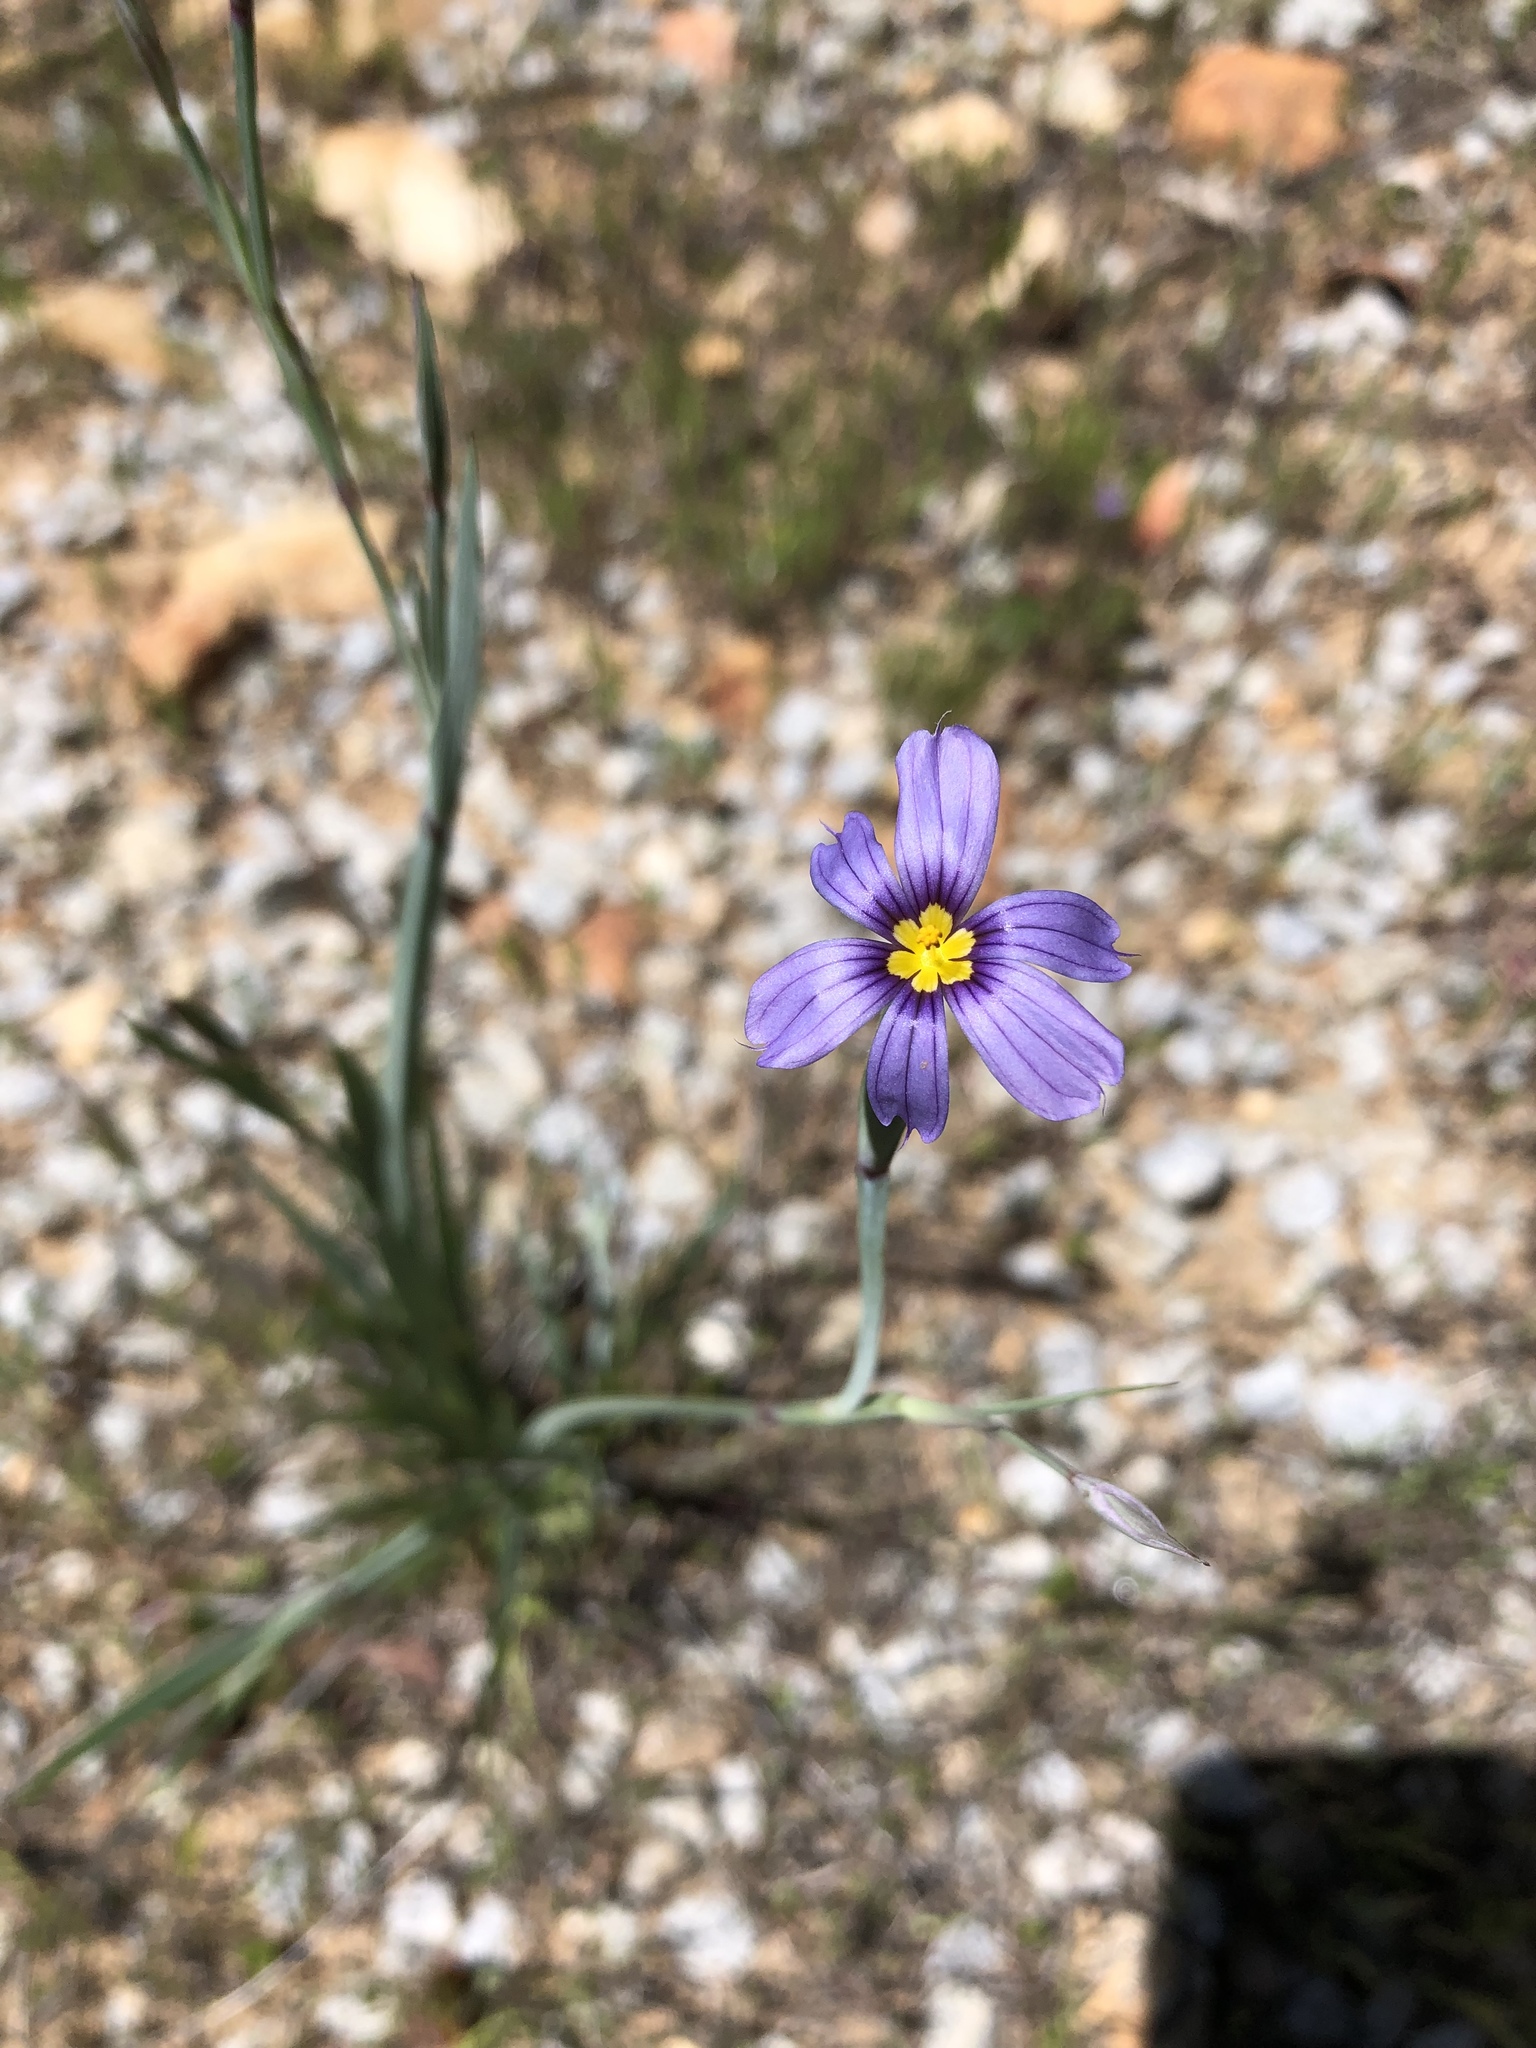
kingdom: Plantae
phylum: Tracheophyta
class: Liliopsida
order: Asparagales
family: Iridaceae
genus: Sisyrinchium
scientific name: Sisyrinchium bellum
